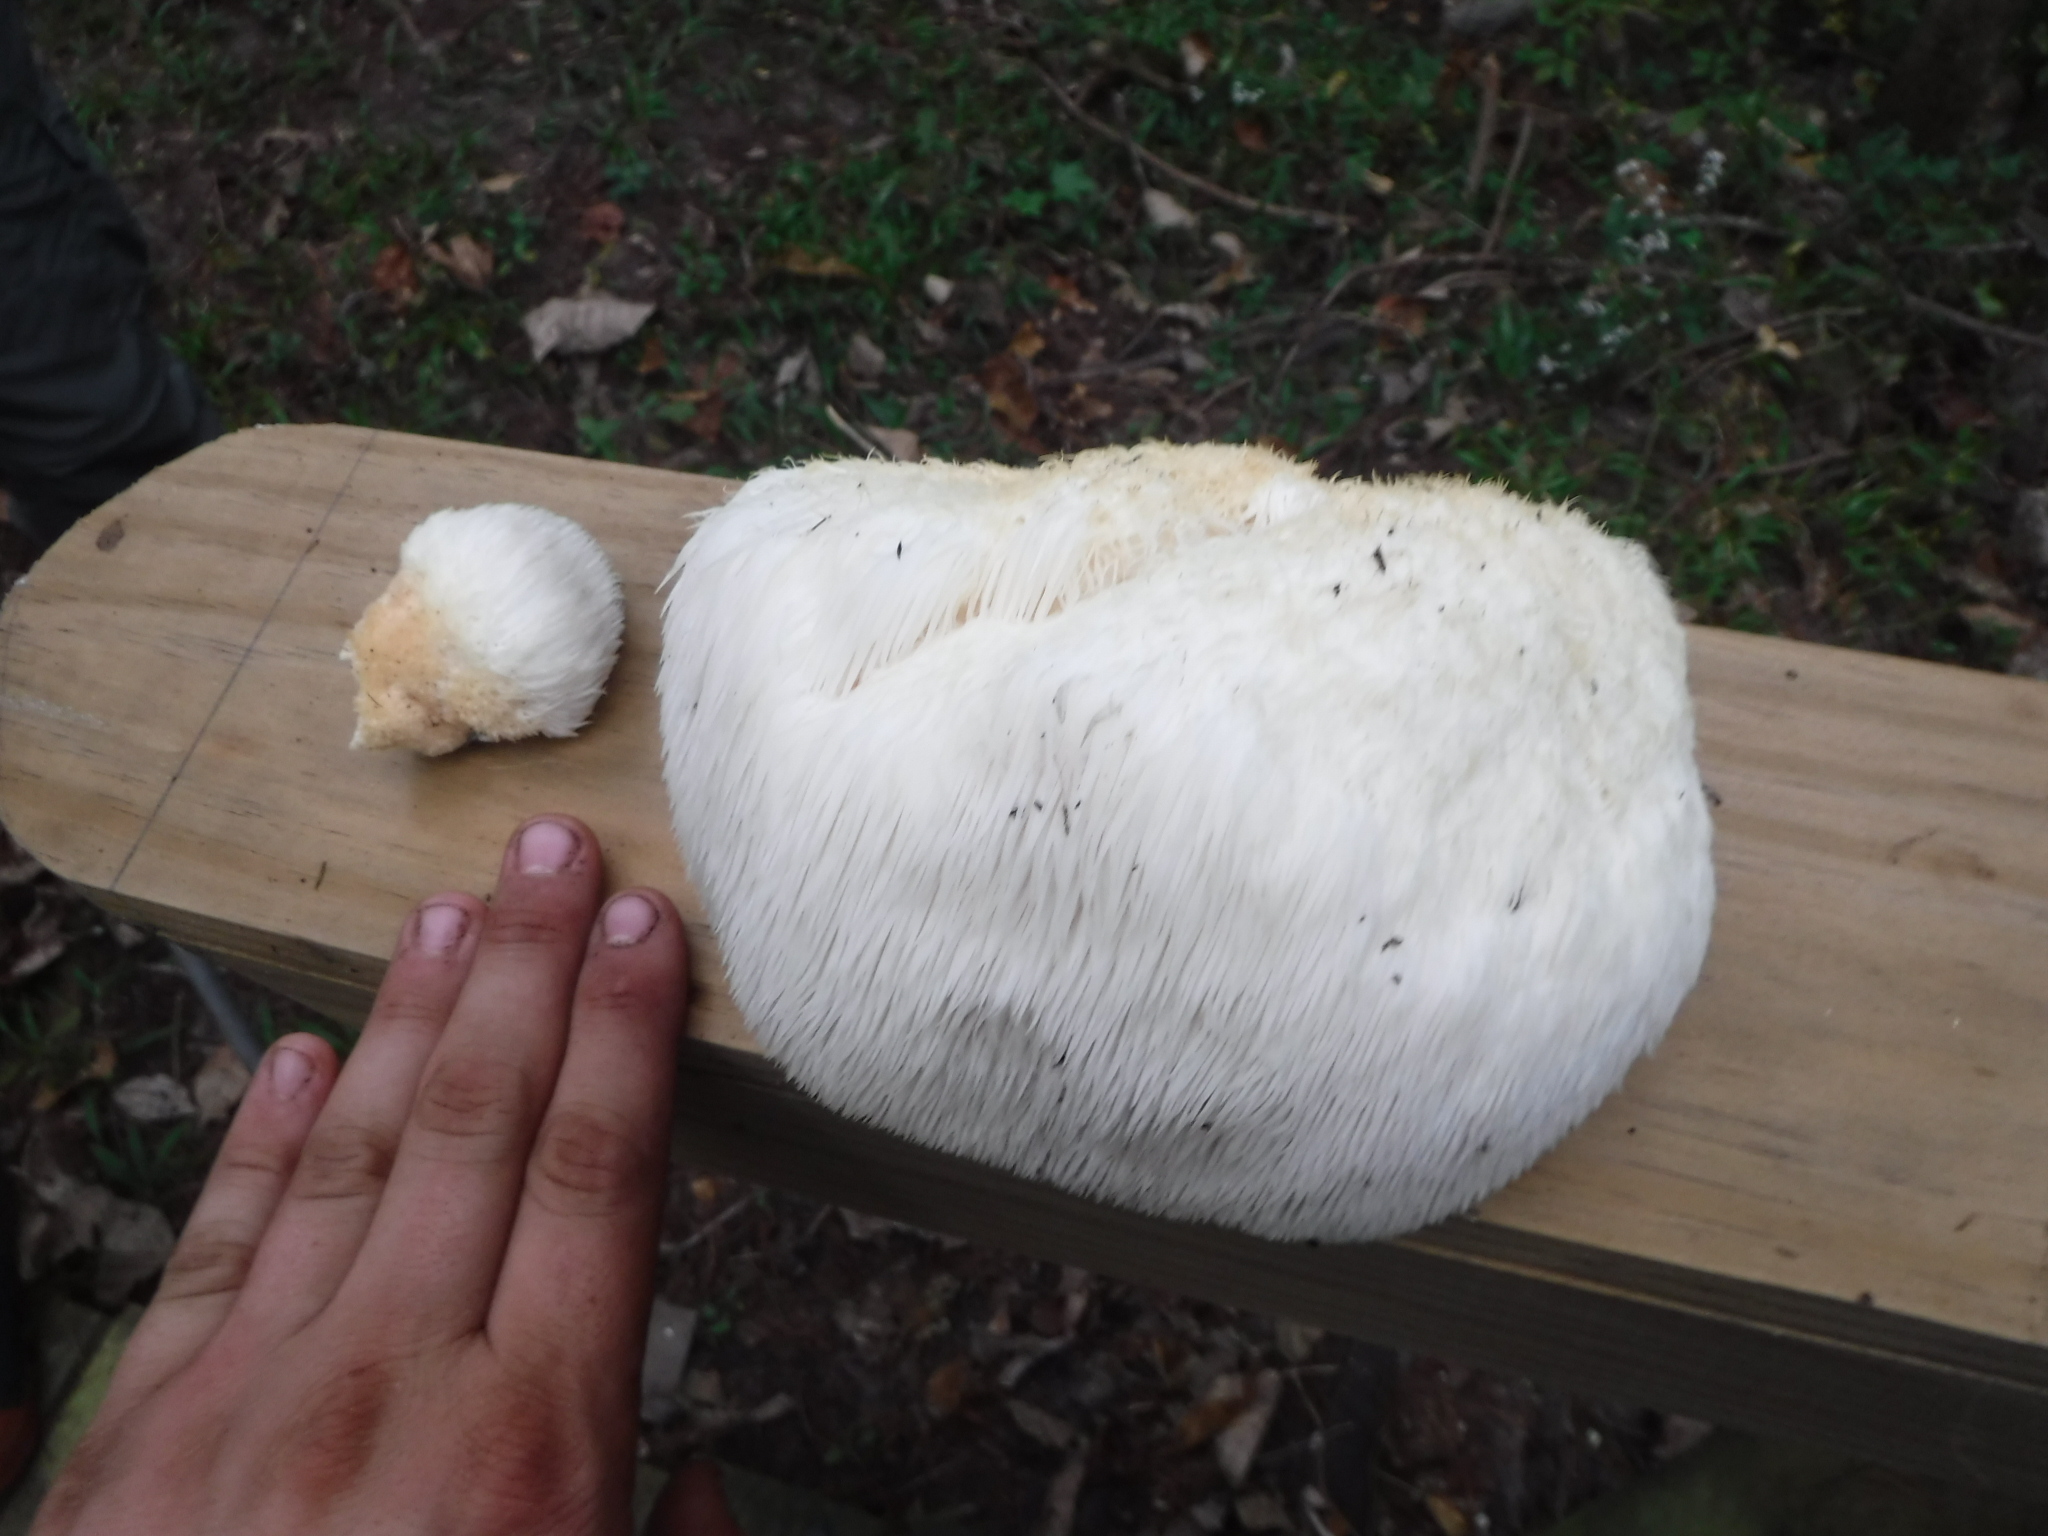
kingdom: Fungi
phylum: Basidiomycota
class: Agaricomycetes
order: Russulales
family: Hericiaceae
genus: Hericium
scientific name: Hericium erinaceus
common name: Bearded tooth
